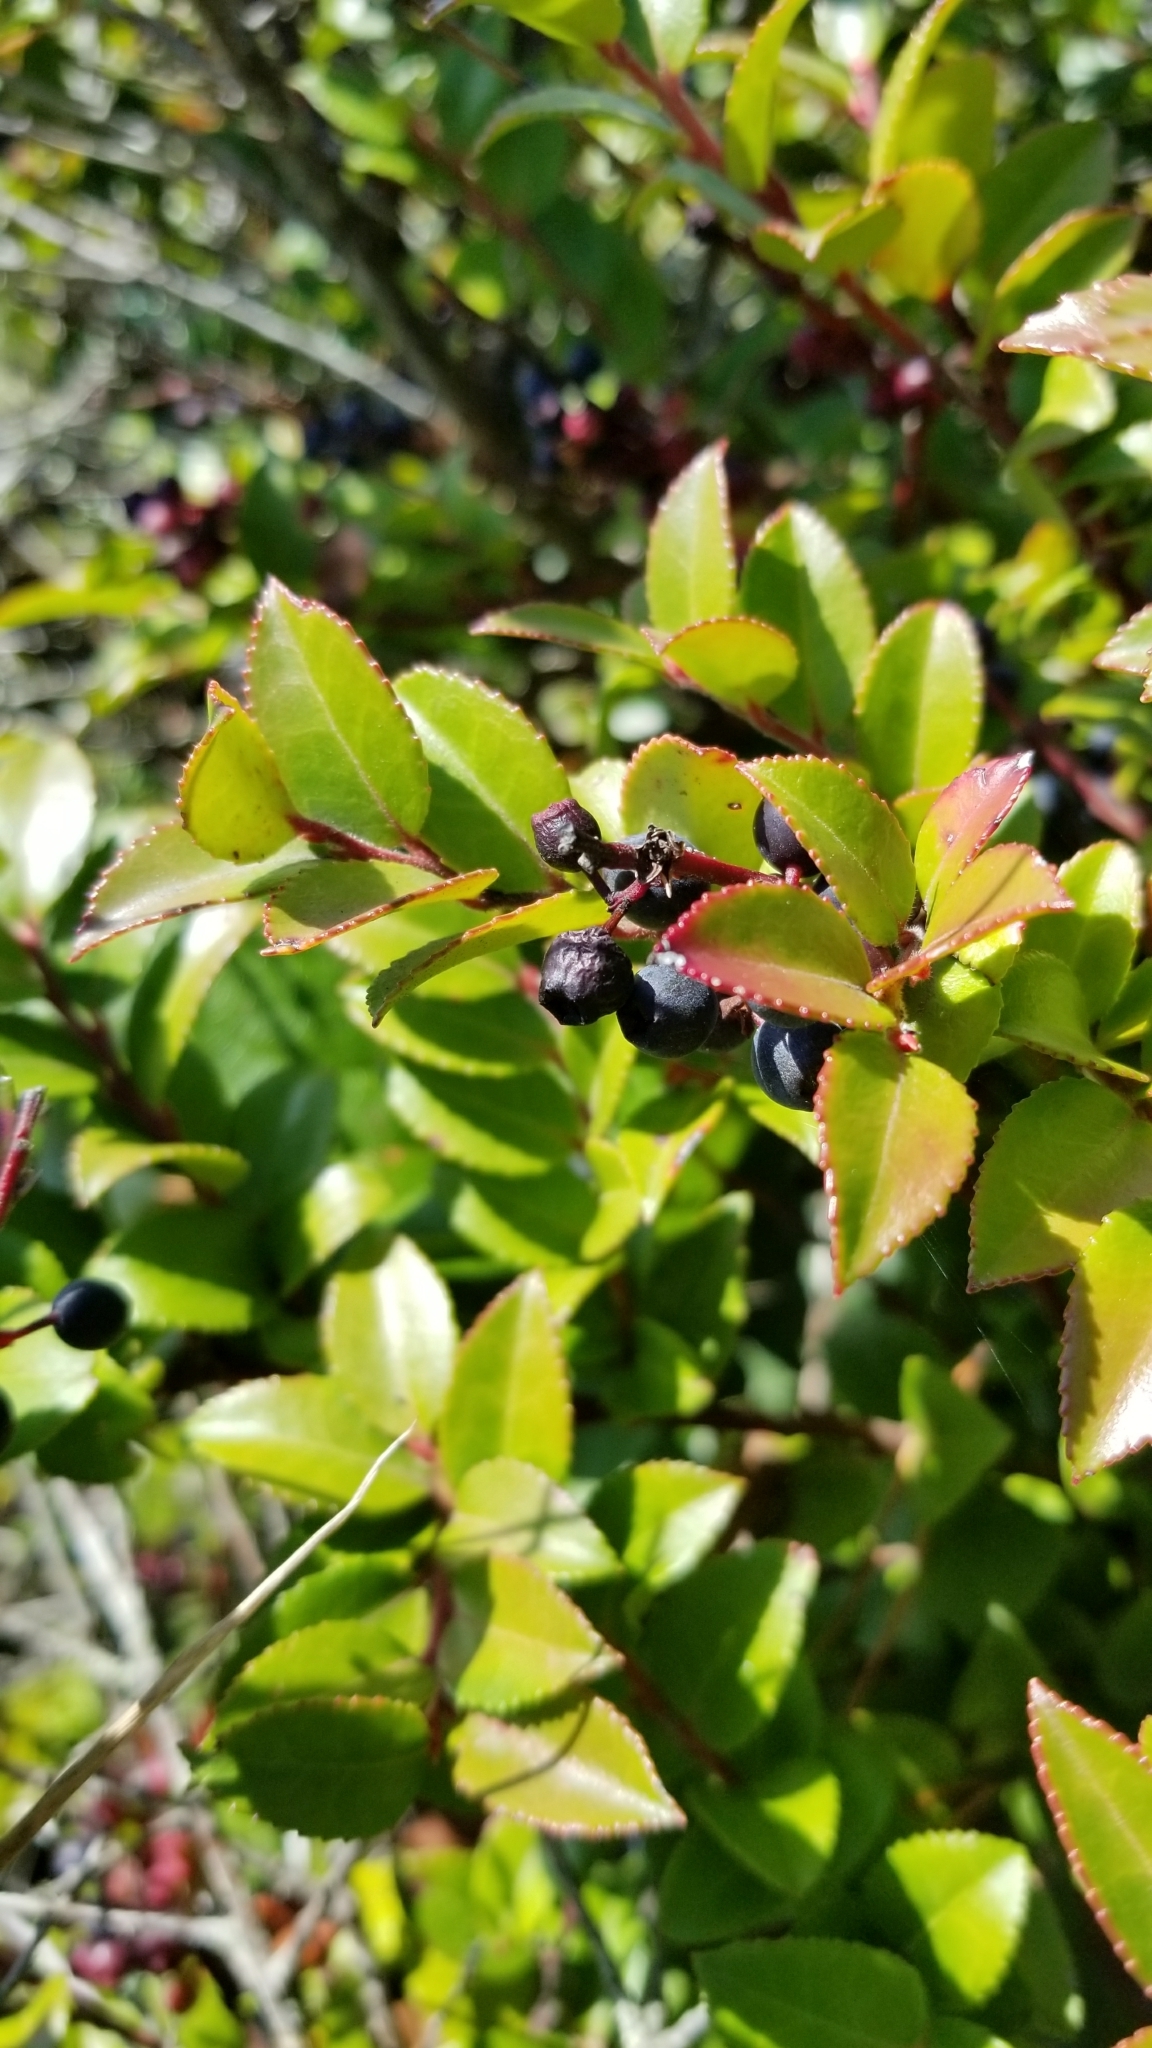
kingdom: Plantae
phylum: Tracheophyta
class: Magnoliopsida
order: Ericales
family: Ericaceae
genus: Vaccinium
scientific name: Vaccinium ovatum
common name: California-huckleberry
